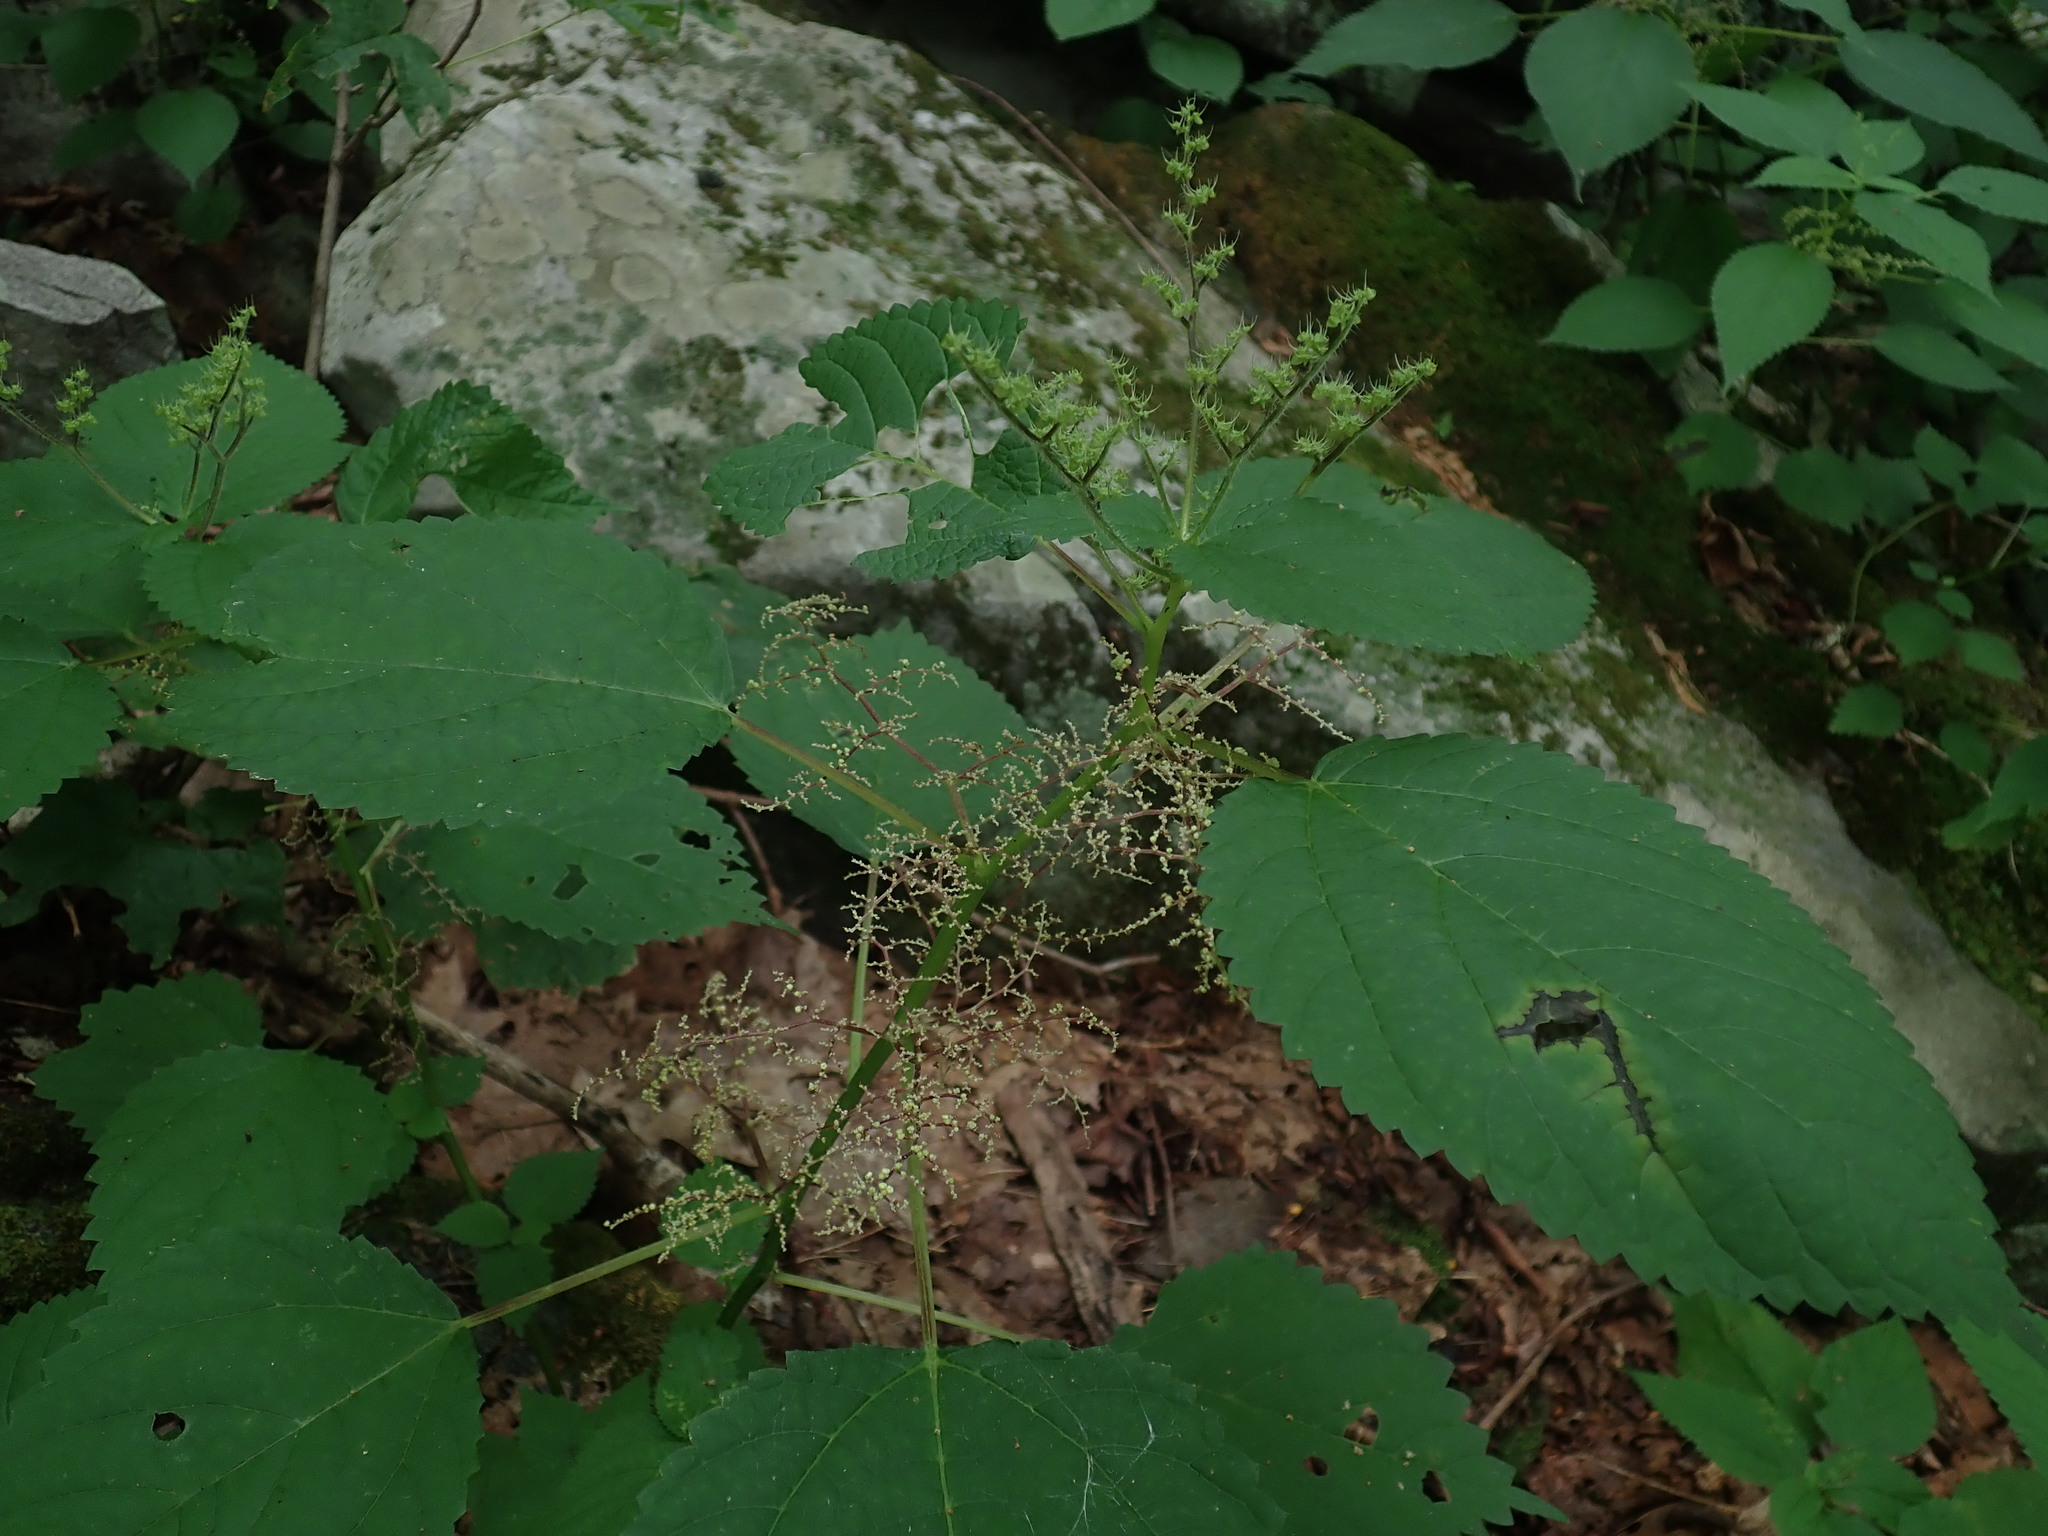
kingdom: Plantae
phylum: Tracheophyta
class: Magnoliopsida
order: Rosales
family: Urticaceae
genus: Laportea
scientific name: Laportea canadensis
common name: Canada nettle
